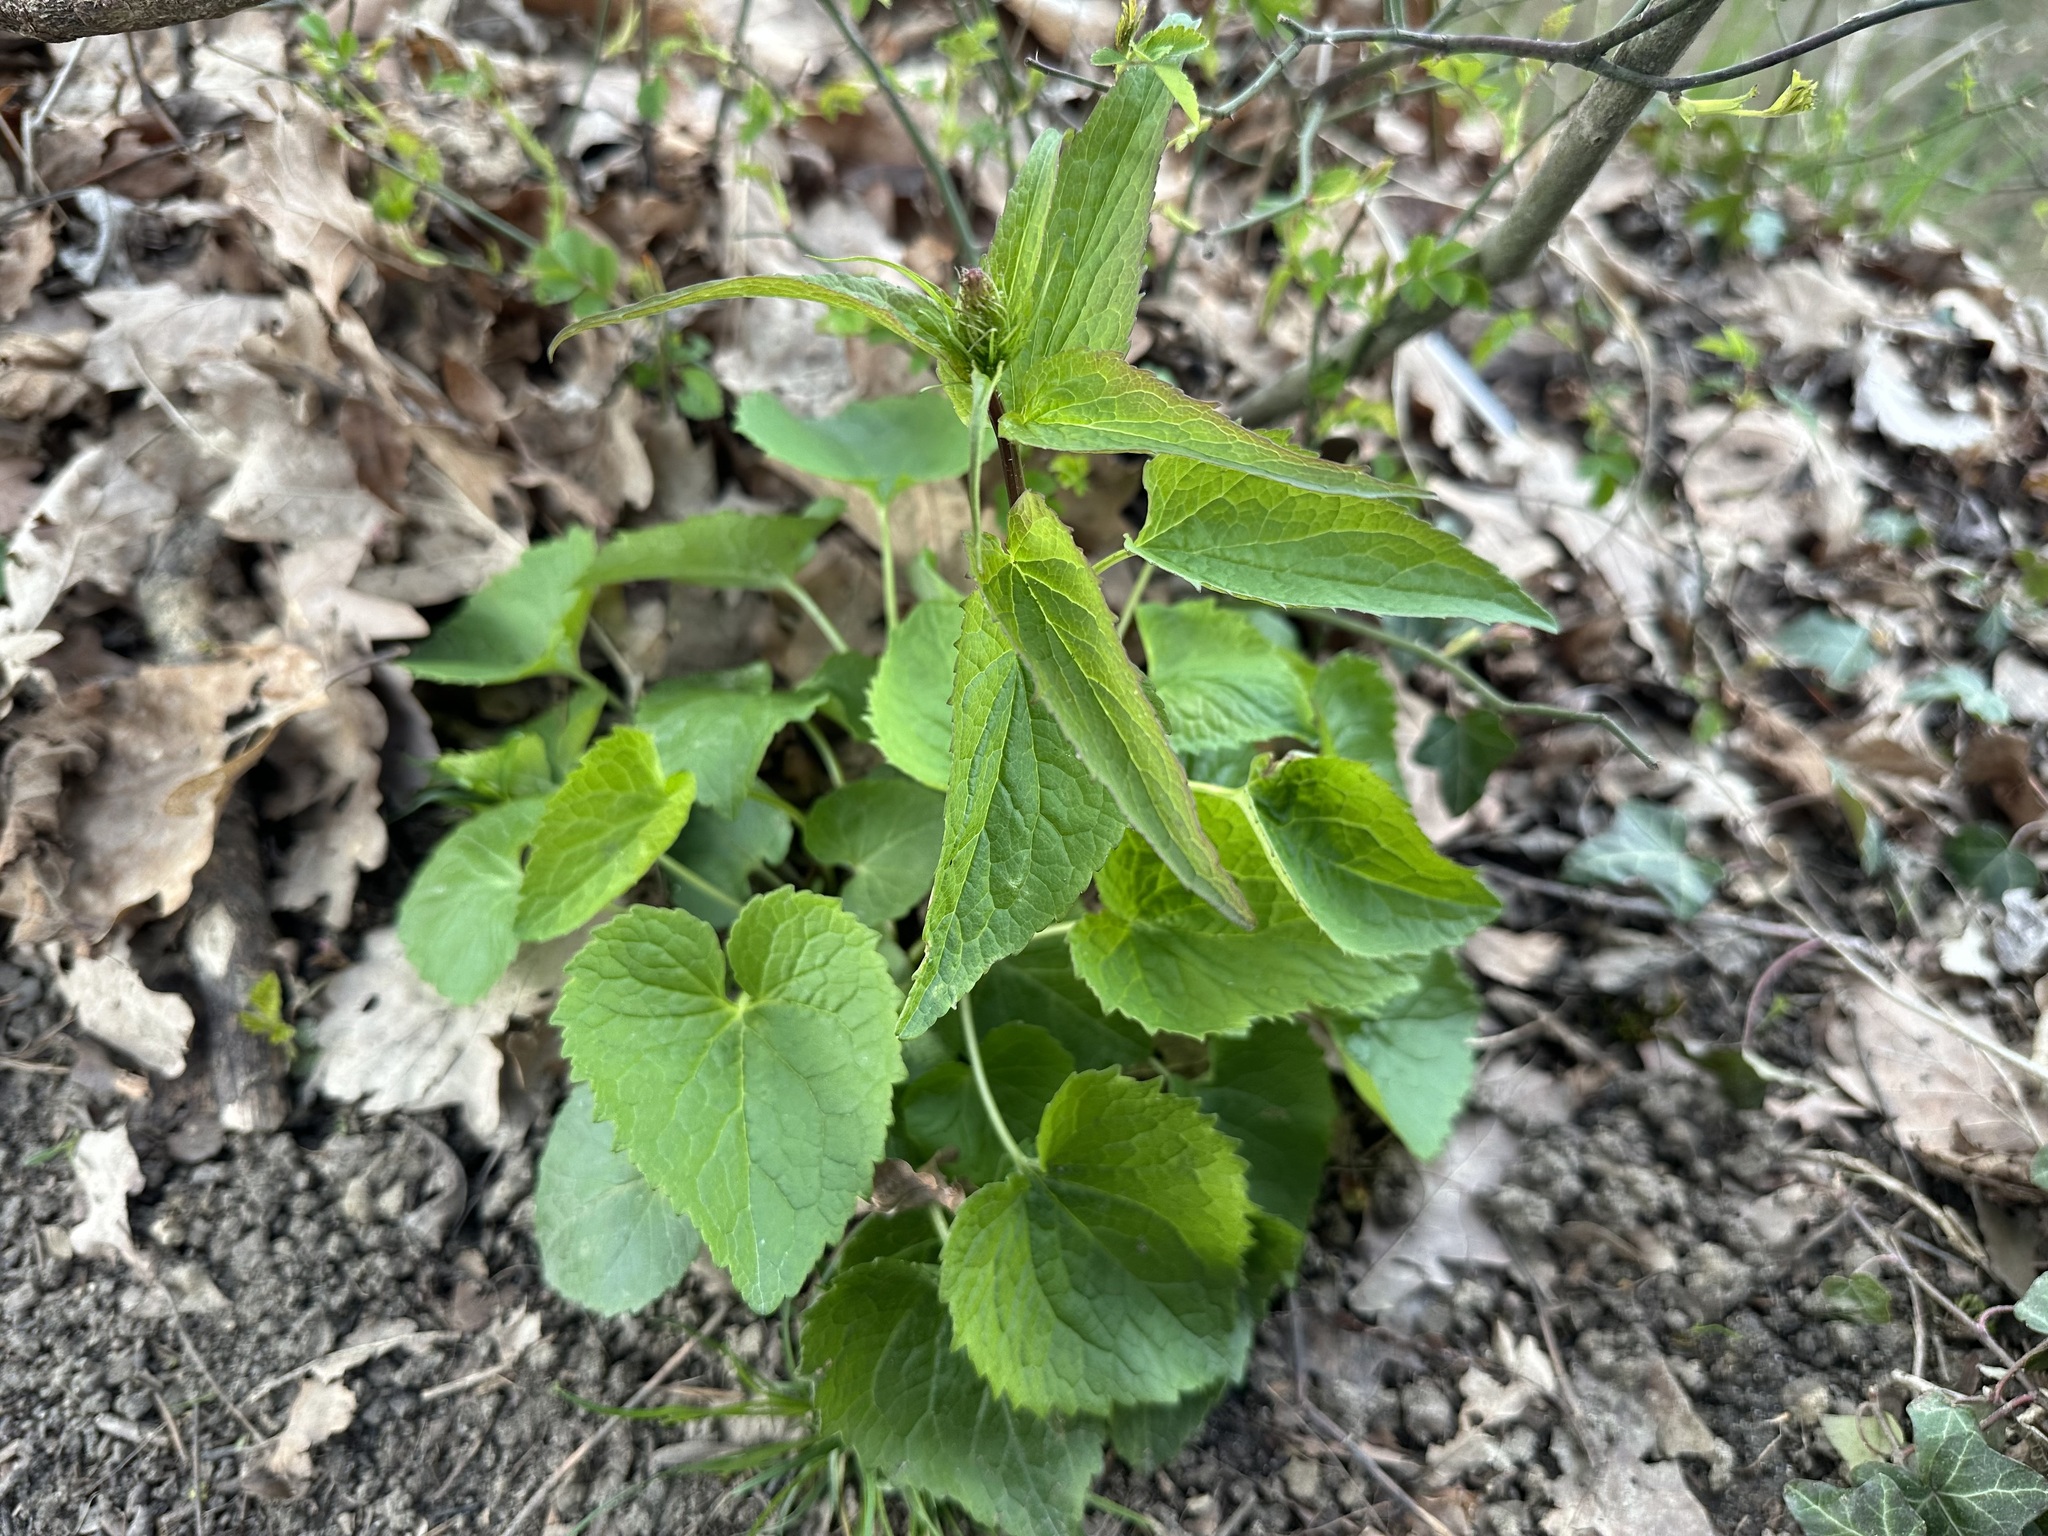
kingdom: Plantae
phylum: Tracheophyta
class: Magnoliopsida
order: Asterales
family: Campanulaceae
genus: Phyteuma
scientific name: Phyteuma spicatum
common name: Spiked rampion
